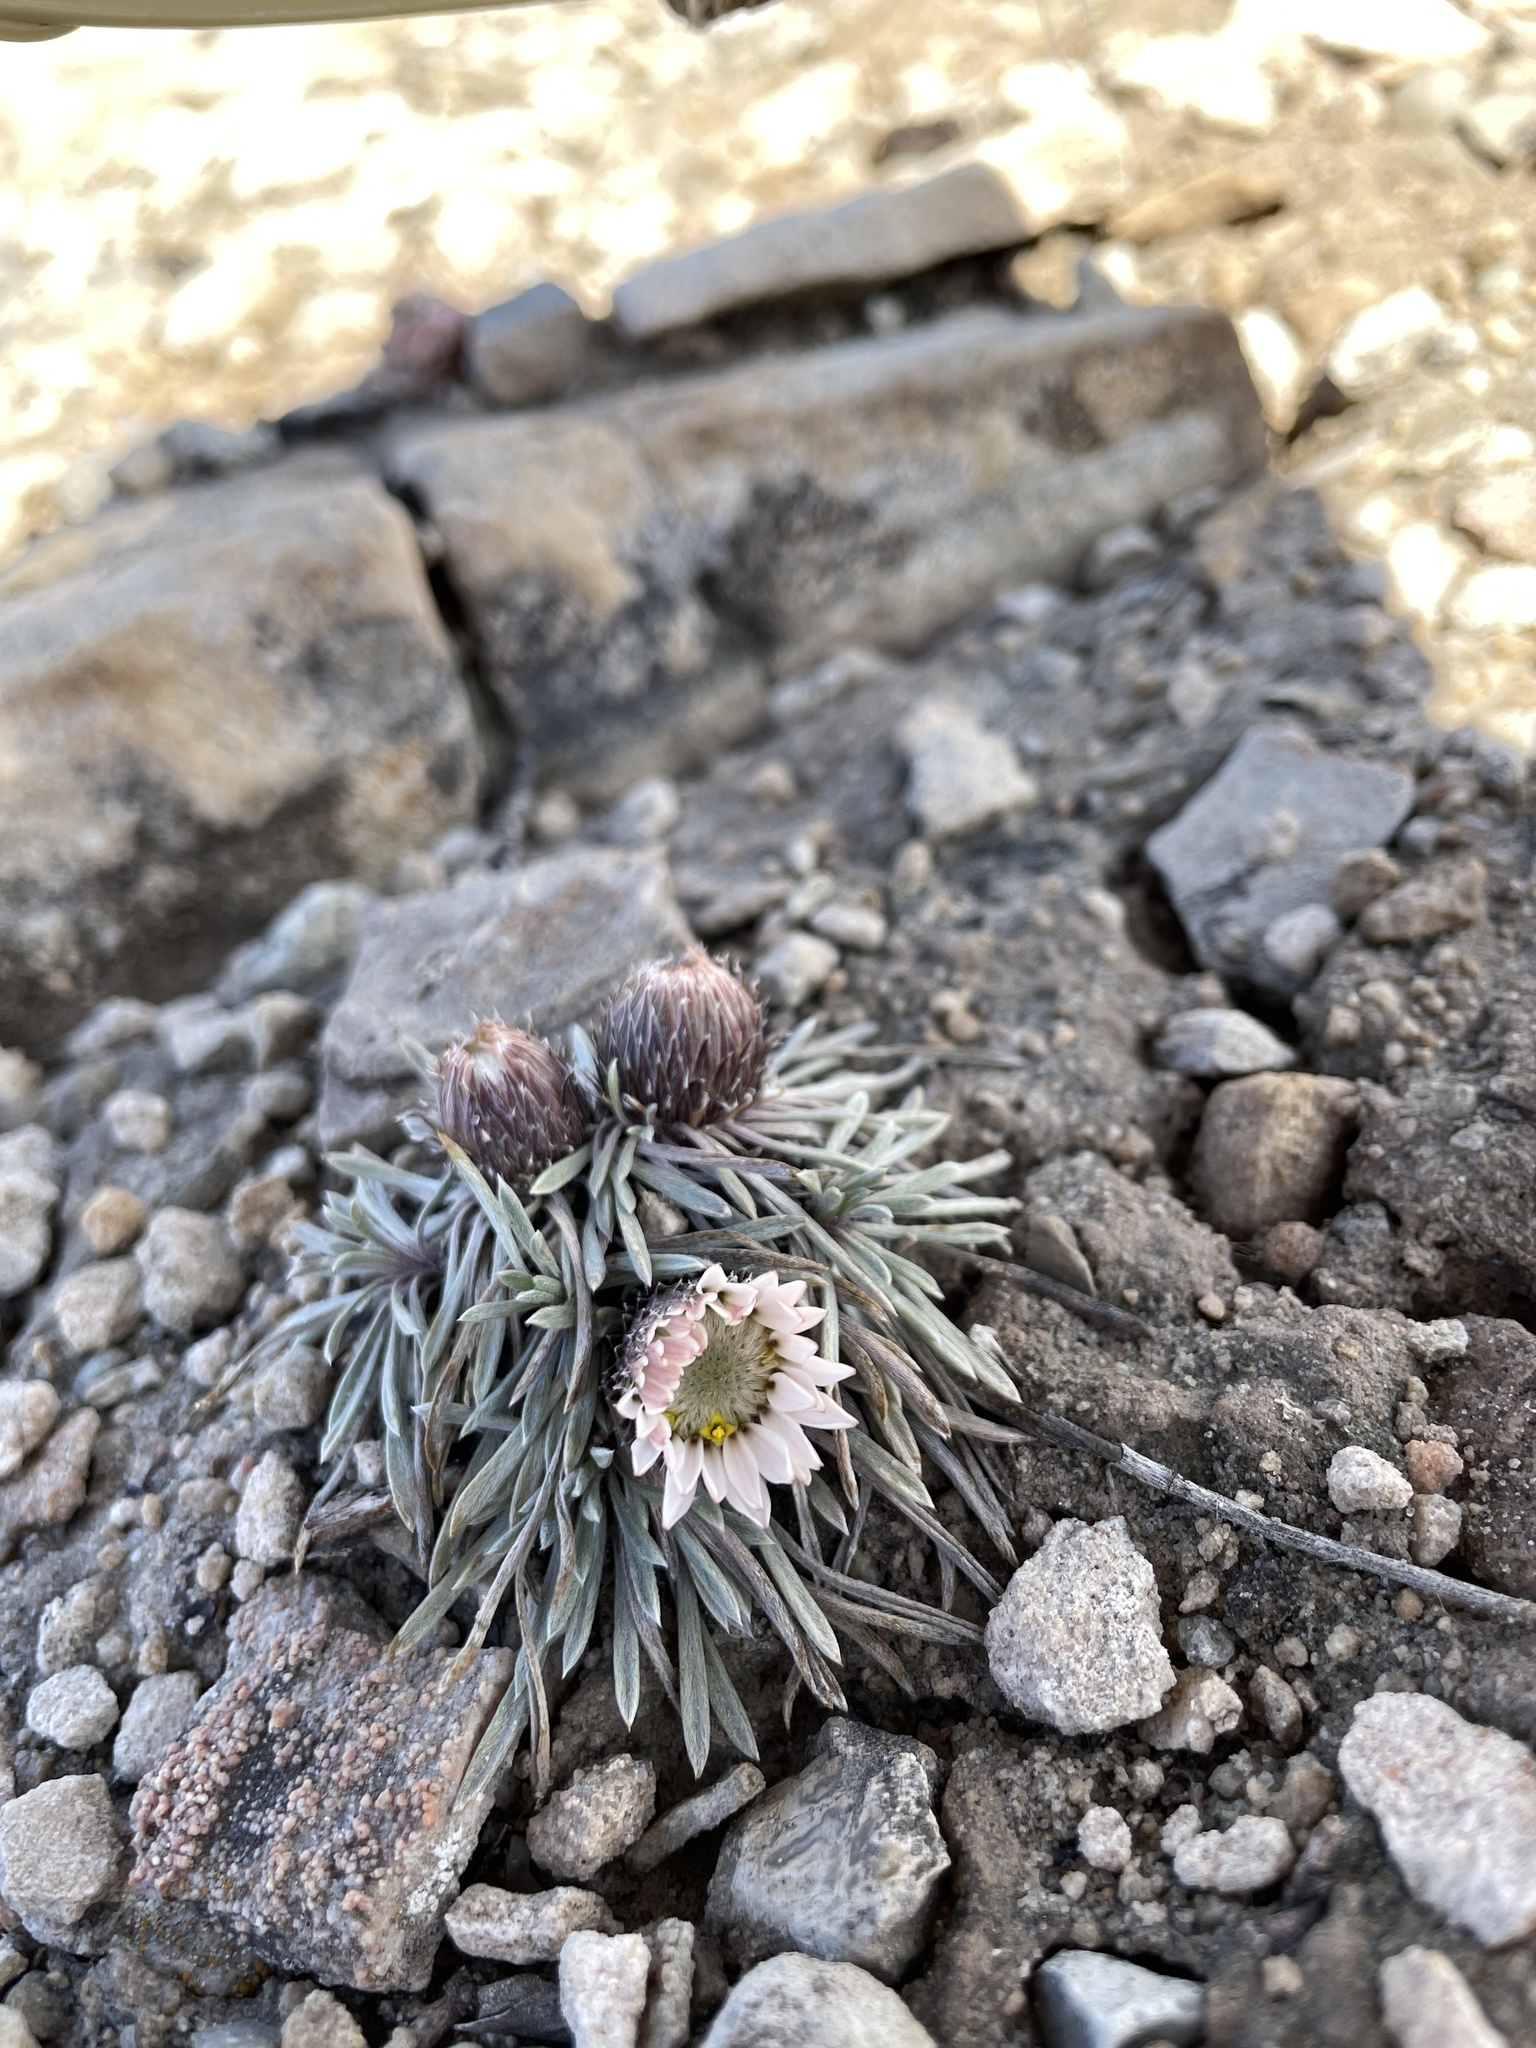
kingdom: Plantae
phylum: Tracheophyta
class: Magnoliopsida
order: Asterales
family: Asteraceae
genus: Townsendia
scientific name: Townsendia hookeri
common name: Hooker's townsend daisy
